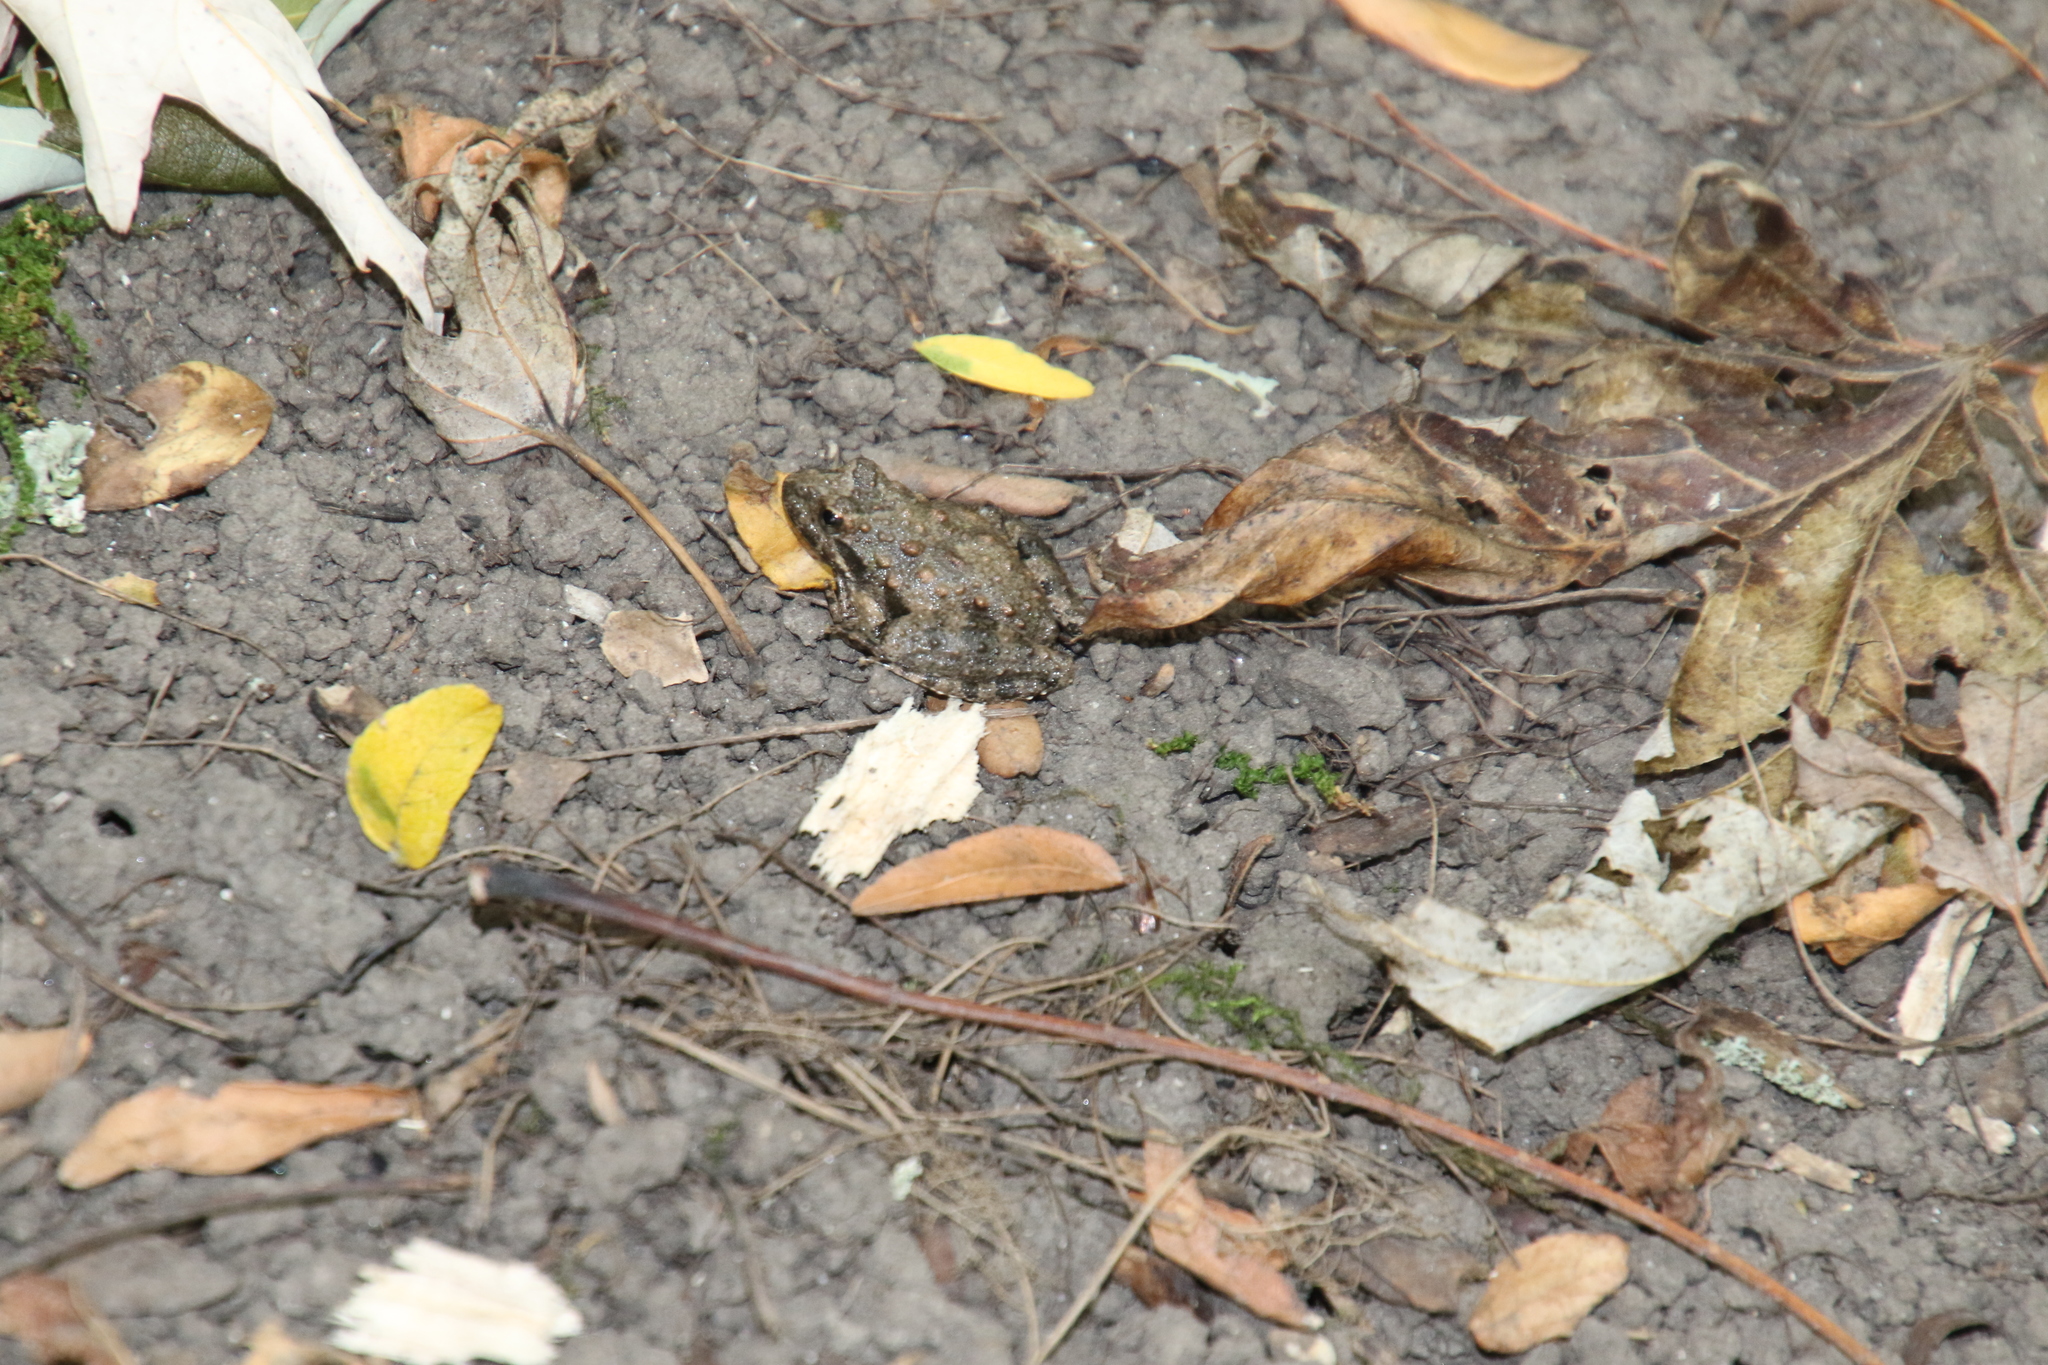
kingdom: Animalia
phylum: Chordata
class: Amphibia
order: Anura
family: Hylidae
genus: Acris
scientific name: Acris blanchardi
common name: Blanchard's cricket frog
